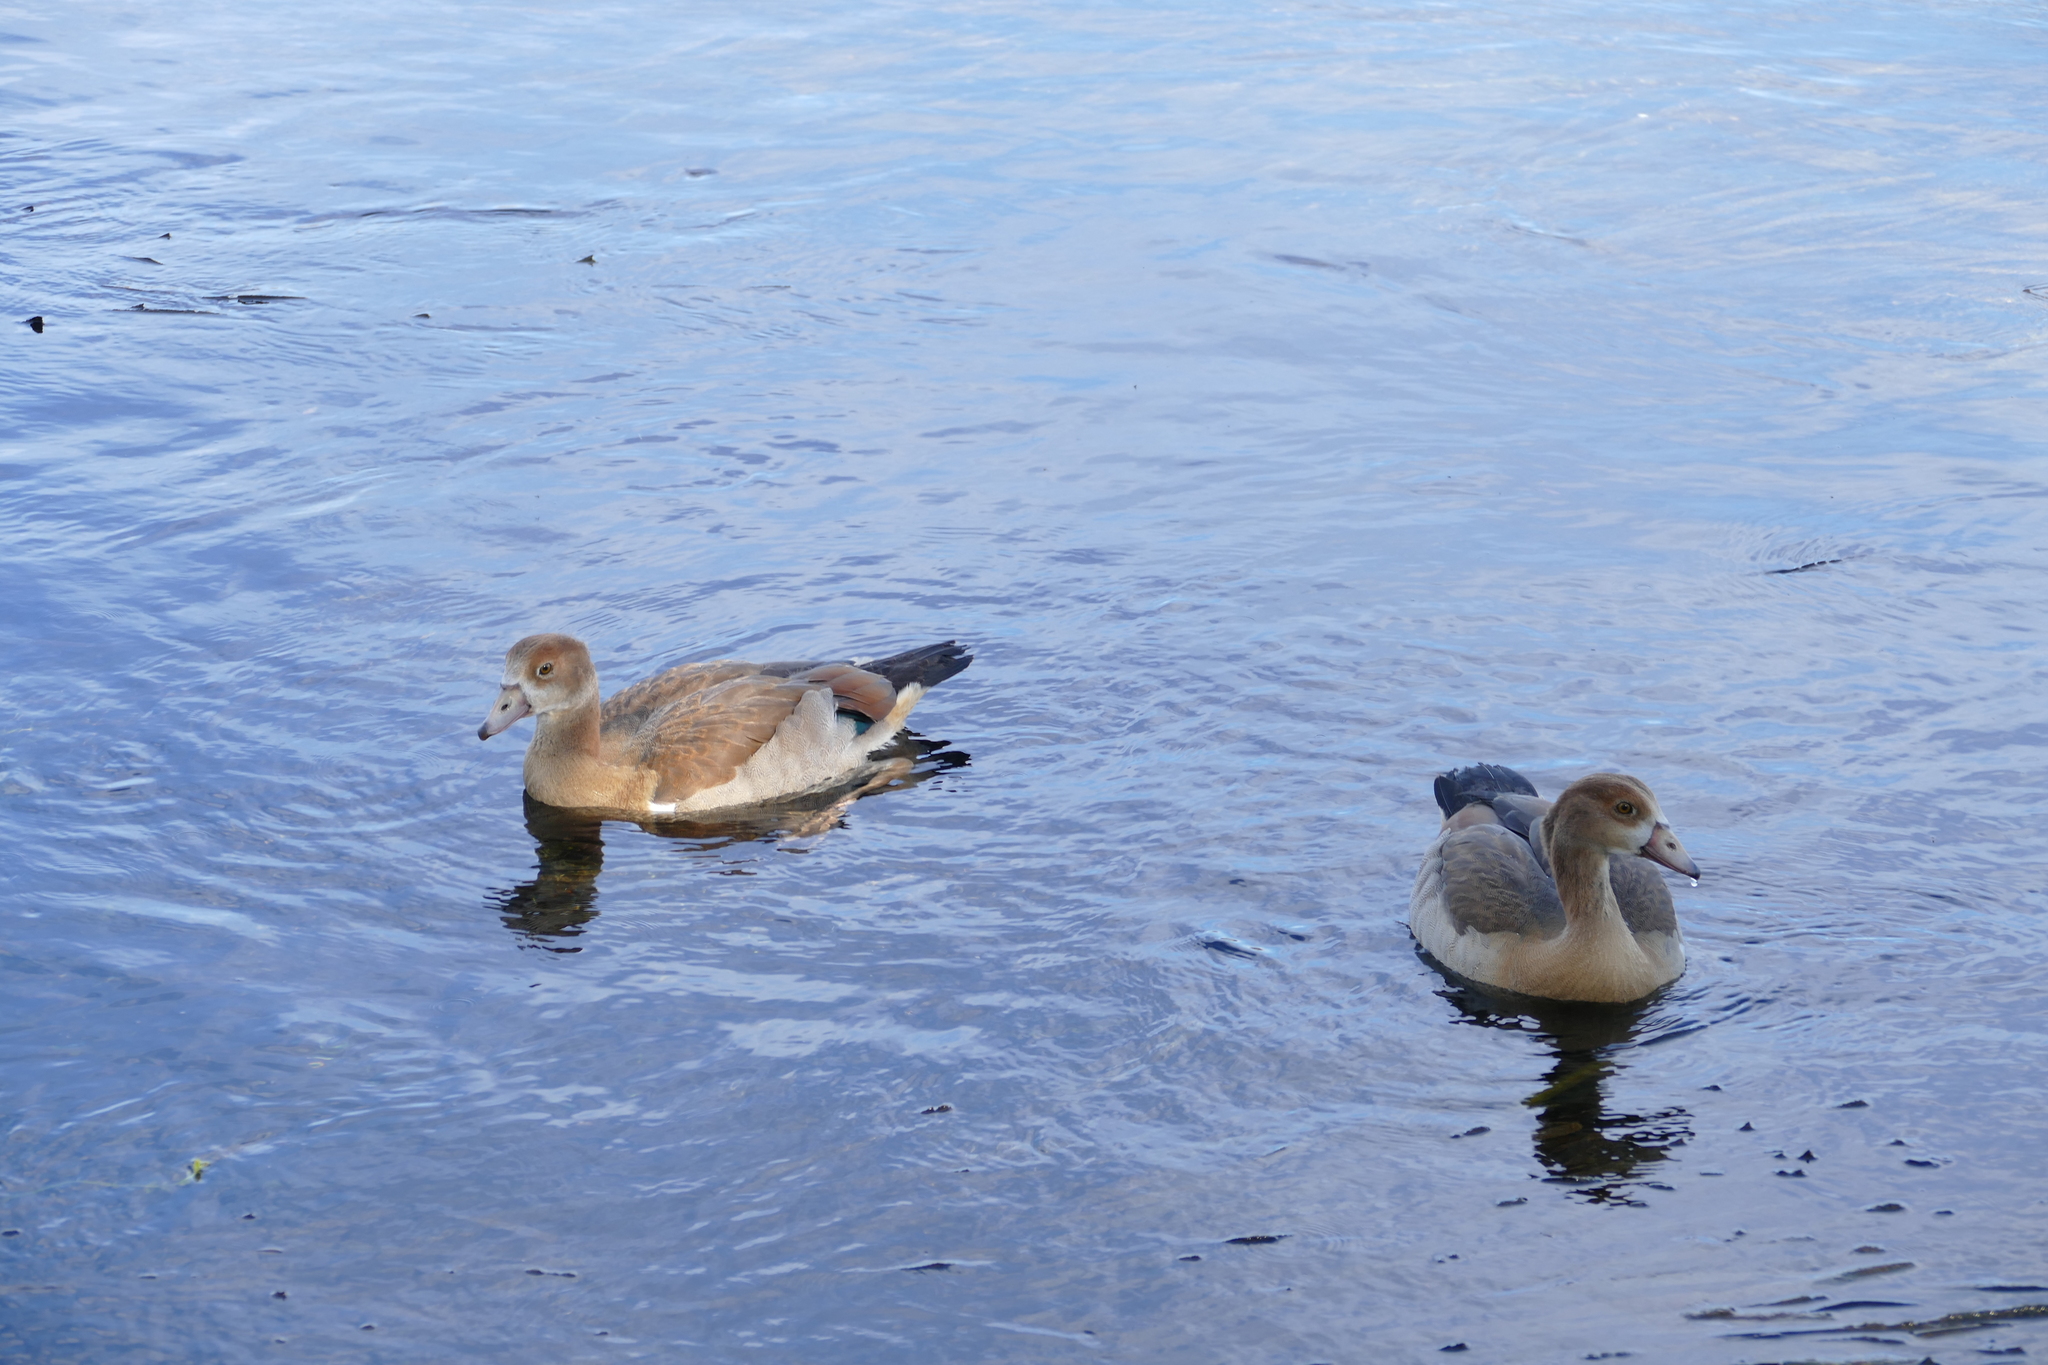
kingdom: Animalia
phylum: Chordata
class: Aves
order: Anseriformes
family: Anatidae
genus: Alopochen
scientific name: Alopochen aegyptiaca
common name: Egyptian goose
